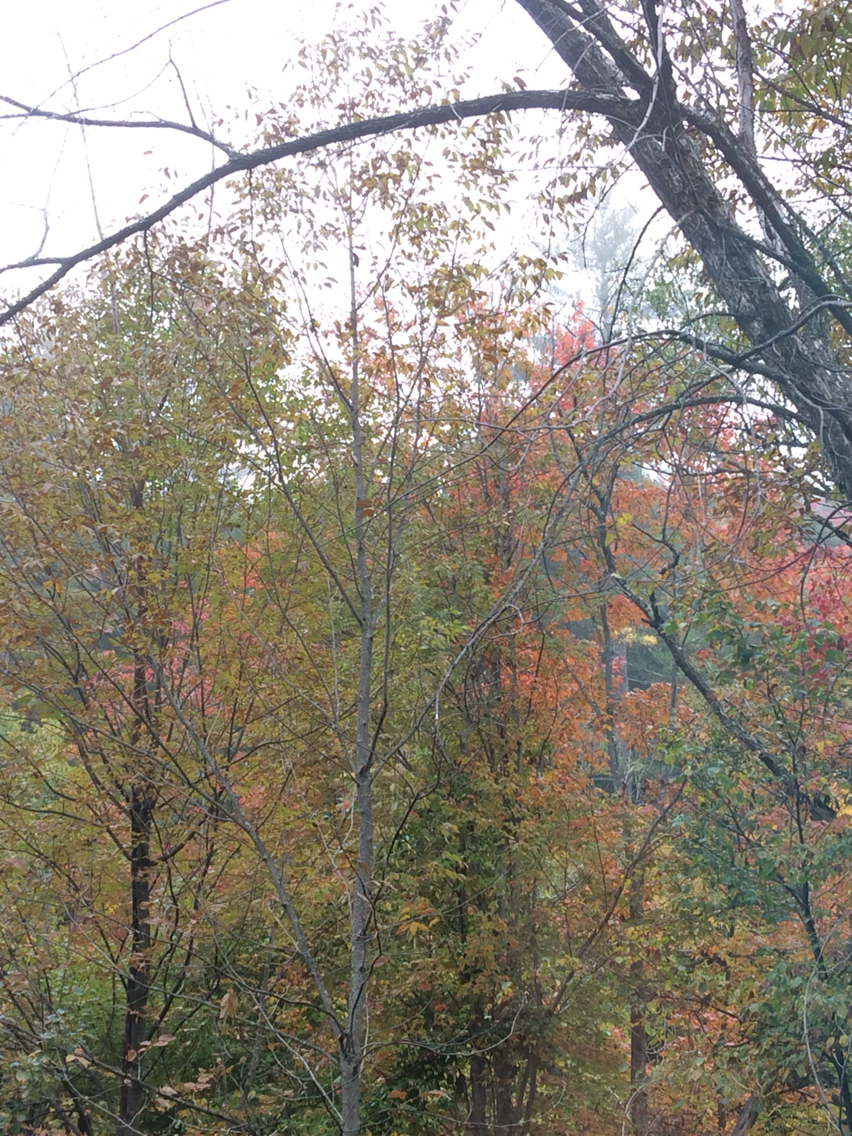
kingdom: Plantae
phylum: Tracheophyta
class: Magnoliopsida
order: Lamiales
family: Oleaceae
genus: Fraxinus
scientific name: Fraxinus americana
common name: White ash
